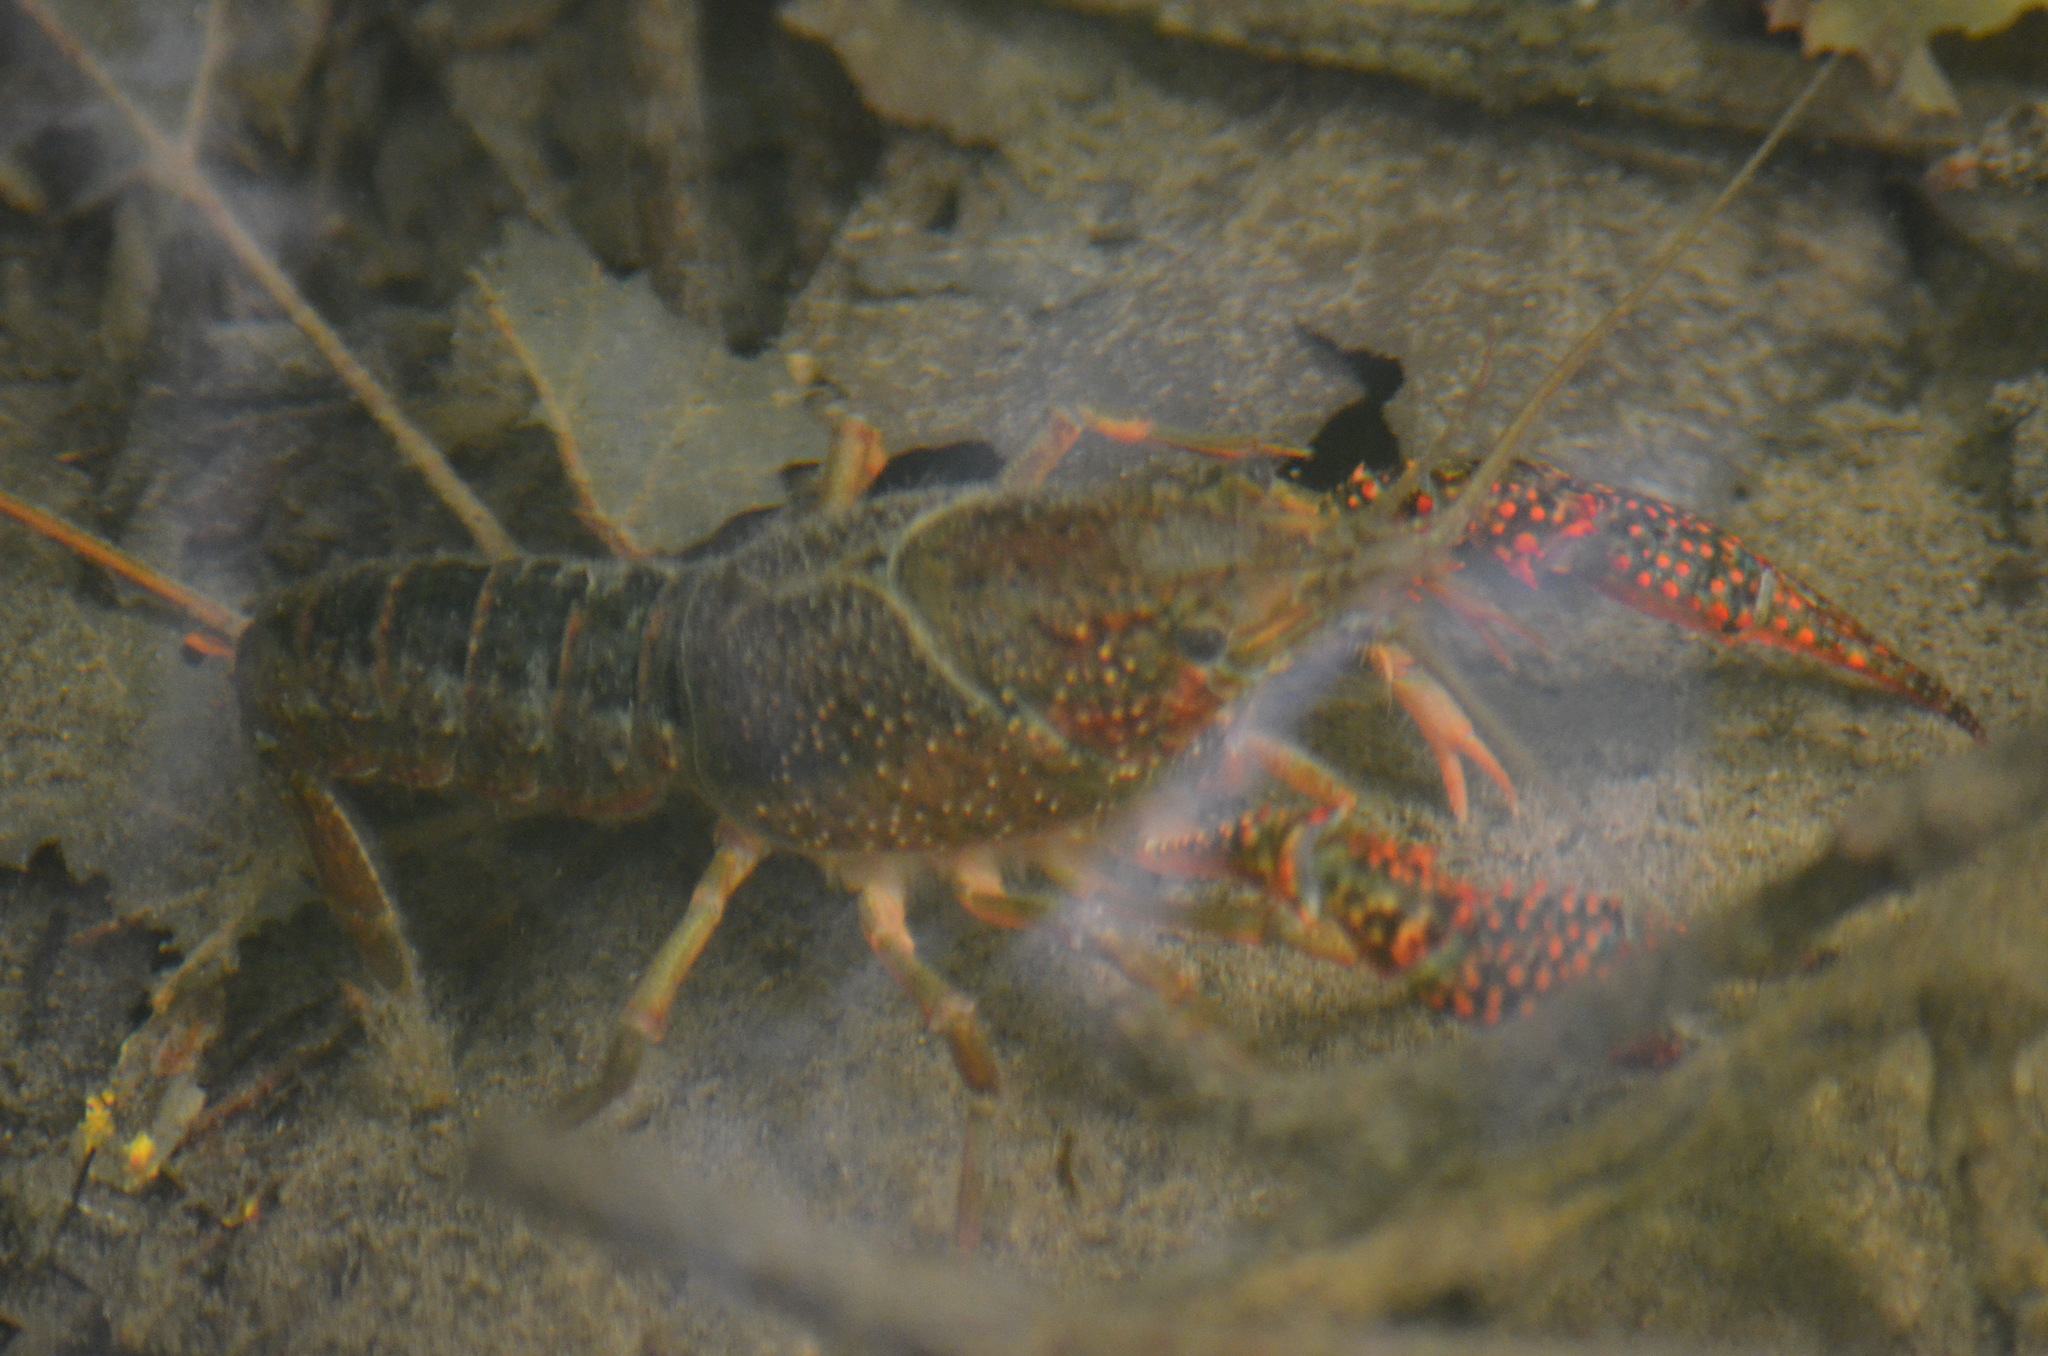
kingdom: Animalia
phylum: Arthropoda
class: Malacostraca
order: Decapoda
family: Cambaridae
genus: Procambarus
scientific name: Procambarus clarkii
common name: Red swamp crayfish
